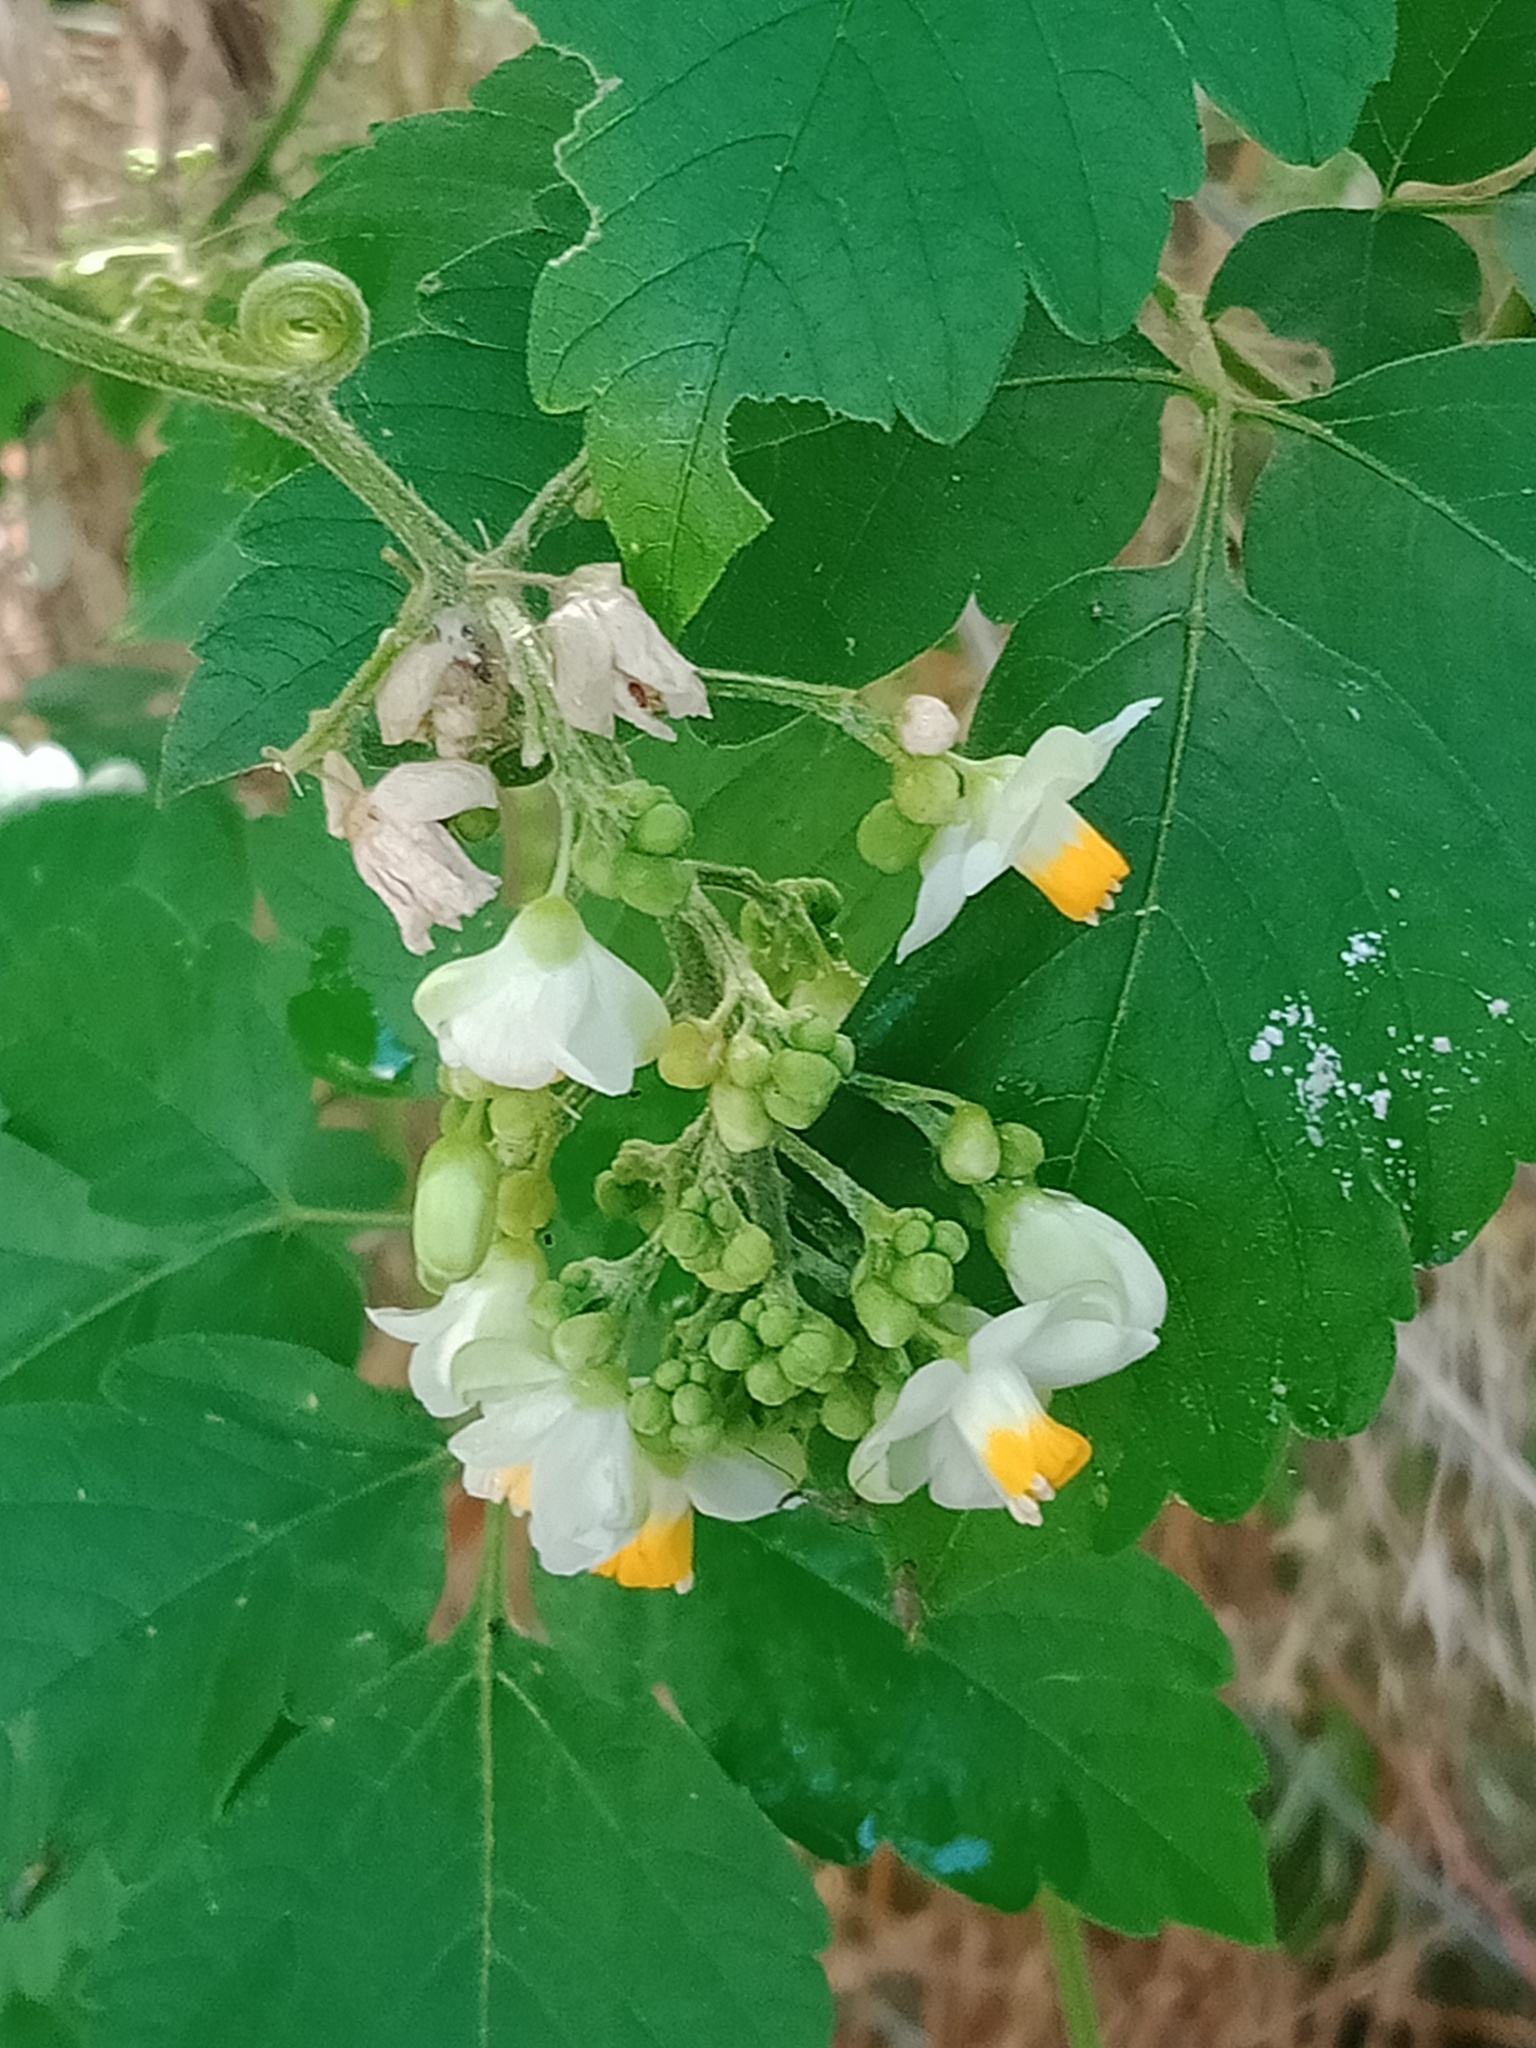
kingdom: Plantae
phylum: Tracheophyta
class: Magnoliopsida
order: Sapindales
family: Sapindaceae
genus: Cardiospermum
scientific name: Cardiospermum grandiflorum
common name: Balloon vine
